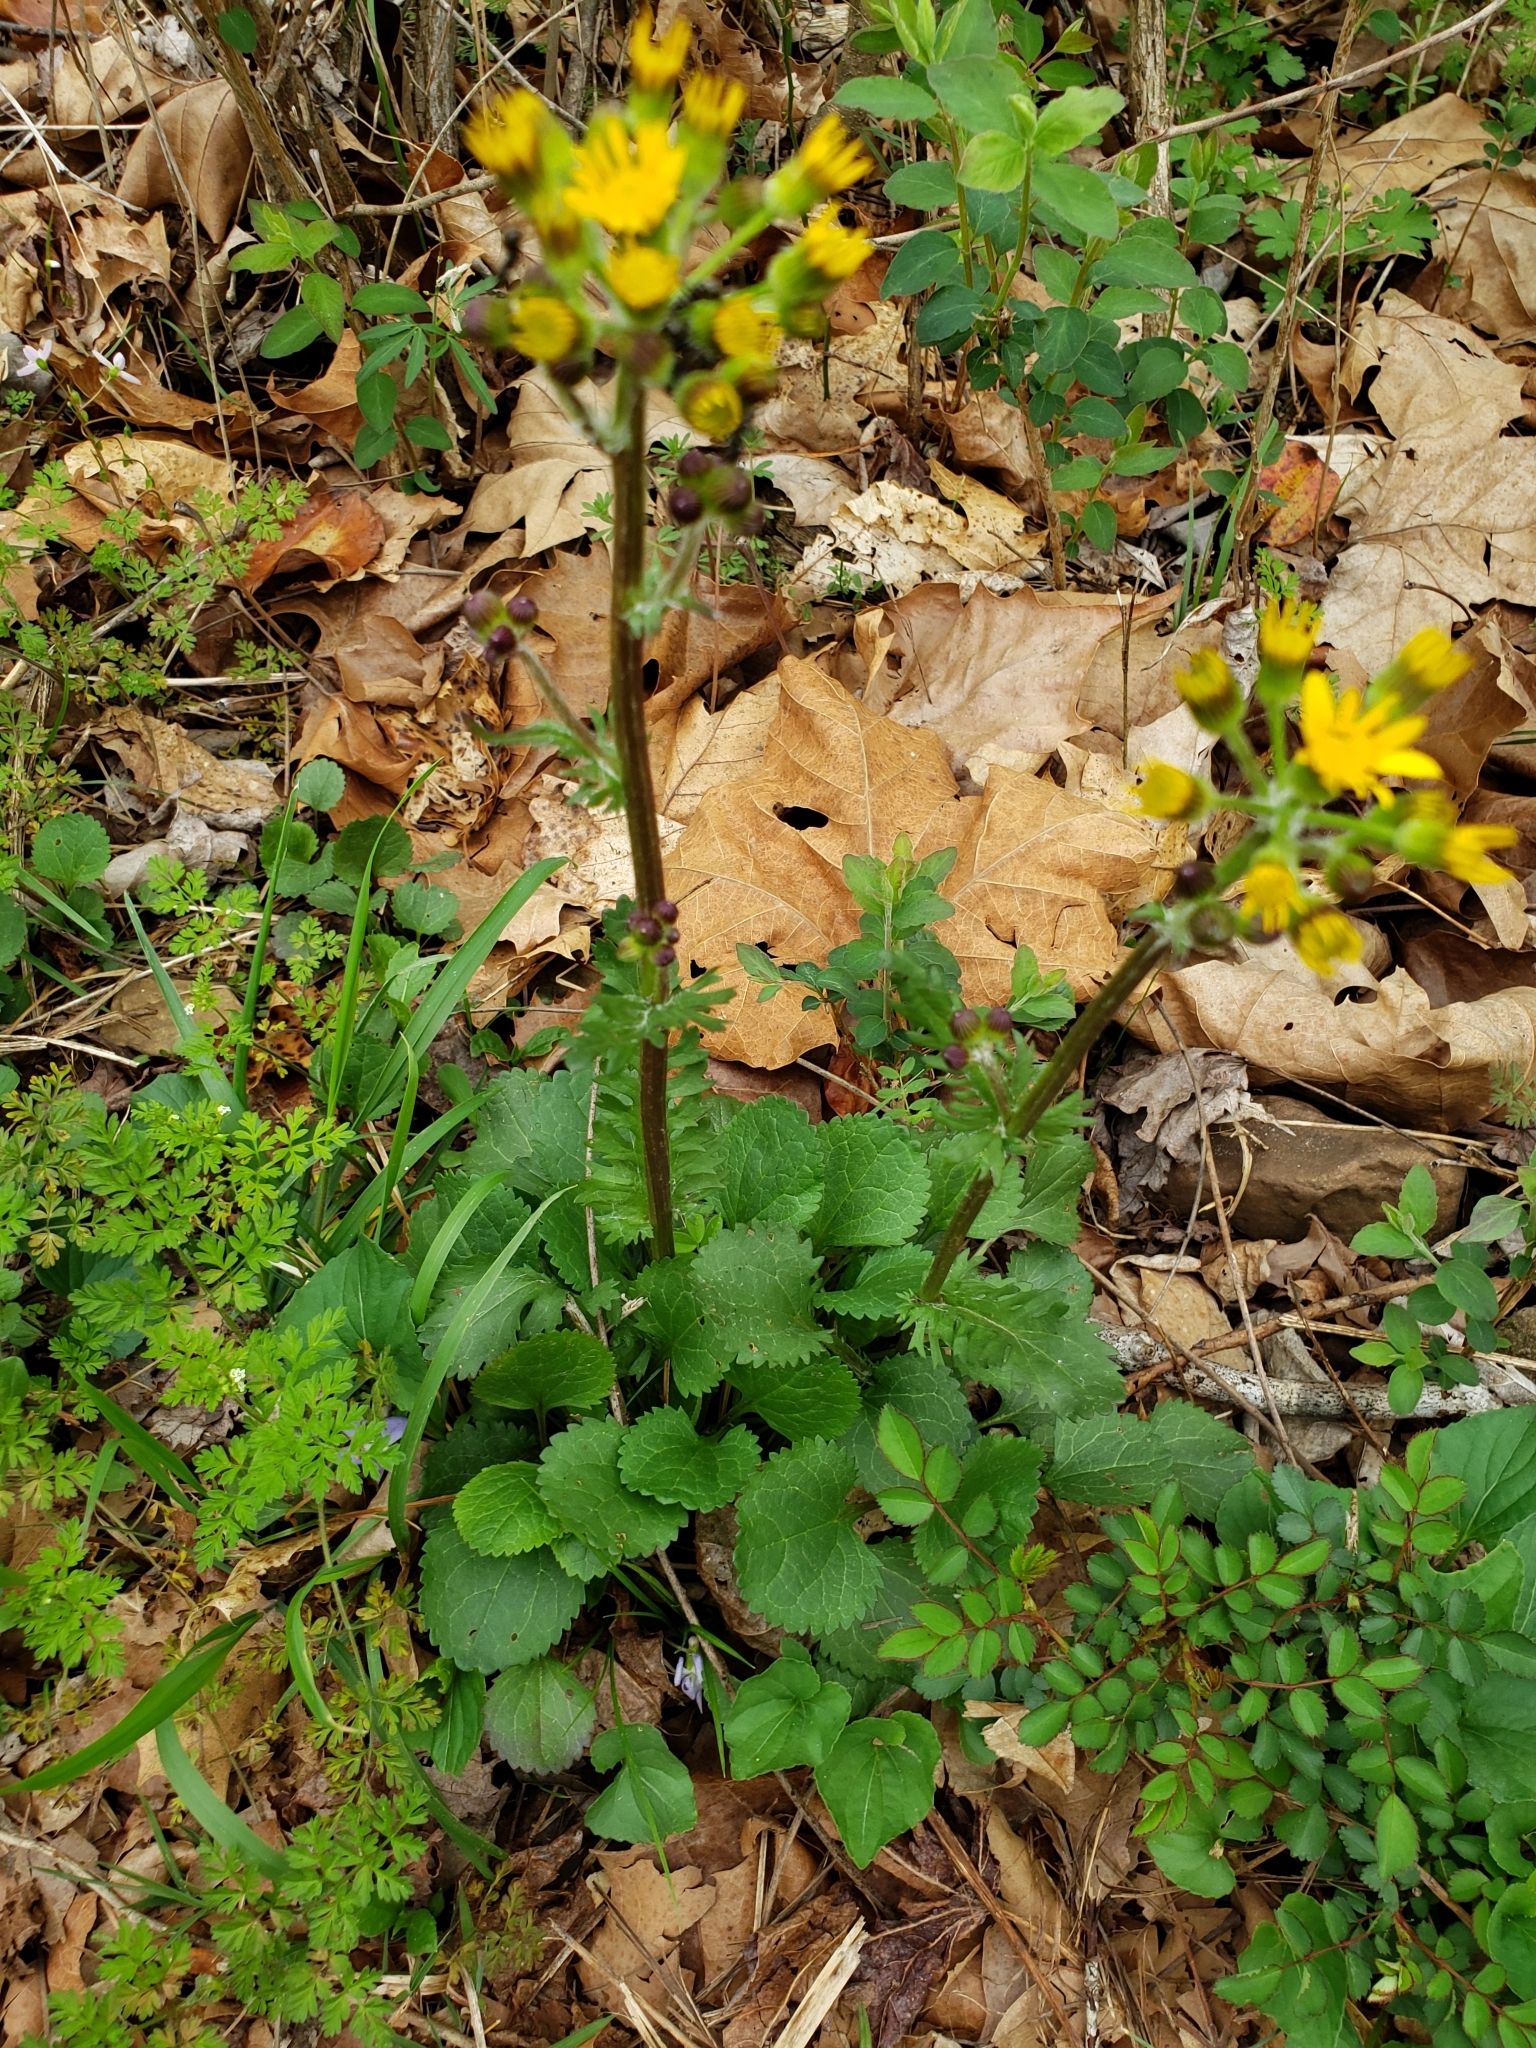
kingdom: Plantae
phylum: Tracheophyta
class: Magnoliopsida
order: Asterales
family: Asteraceae
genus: Packera
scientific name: Packera obovata
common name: Round-leaf ragwort
